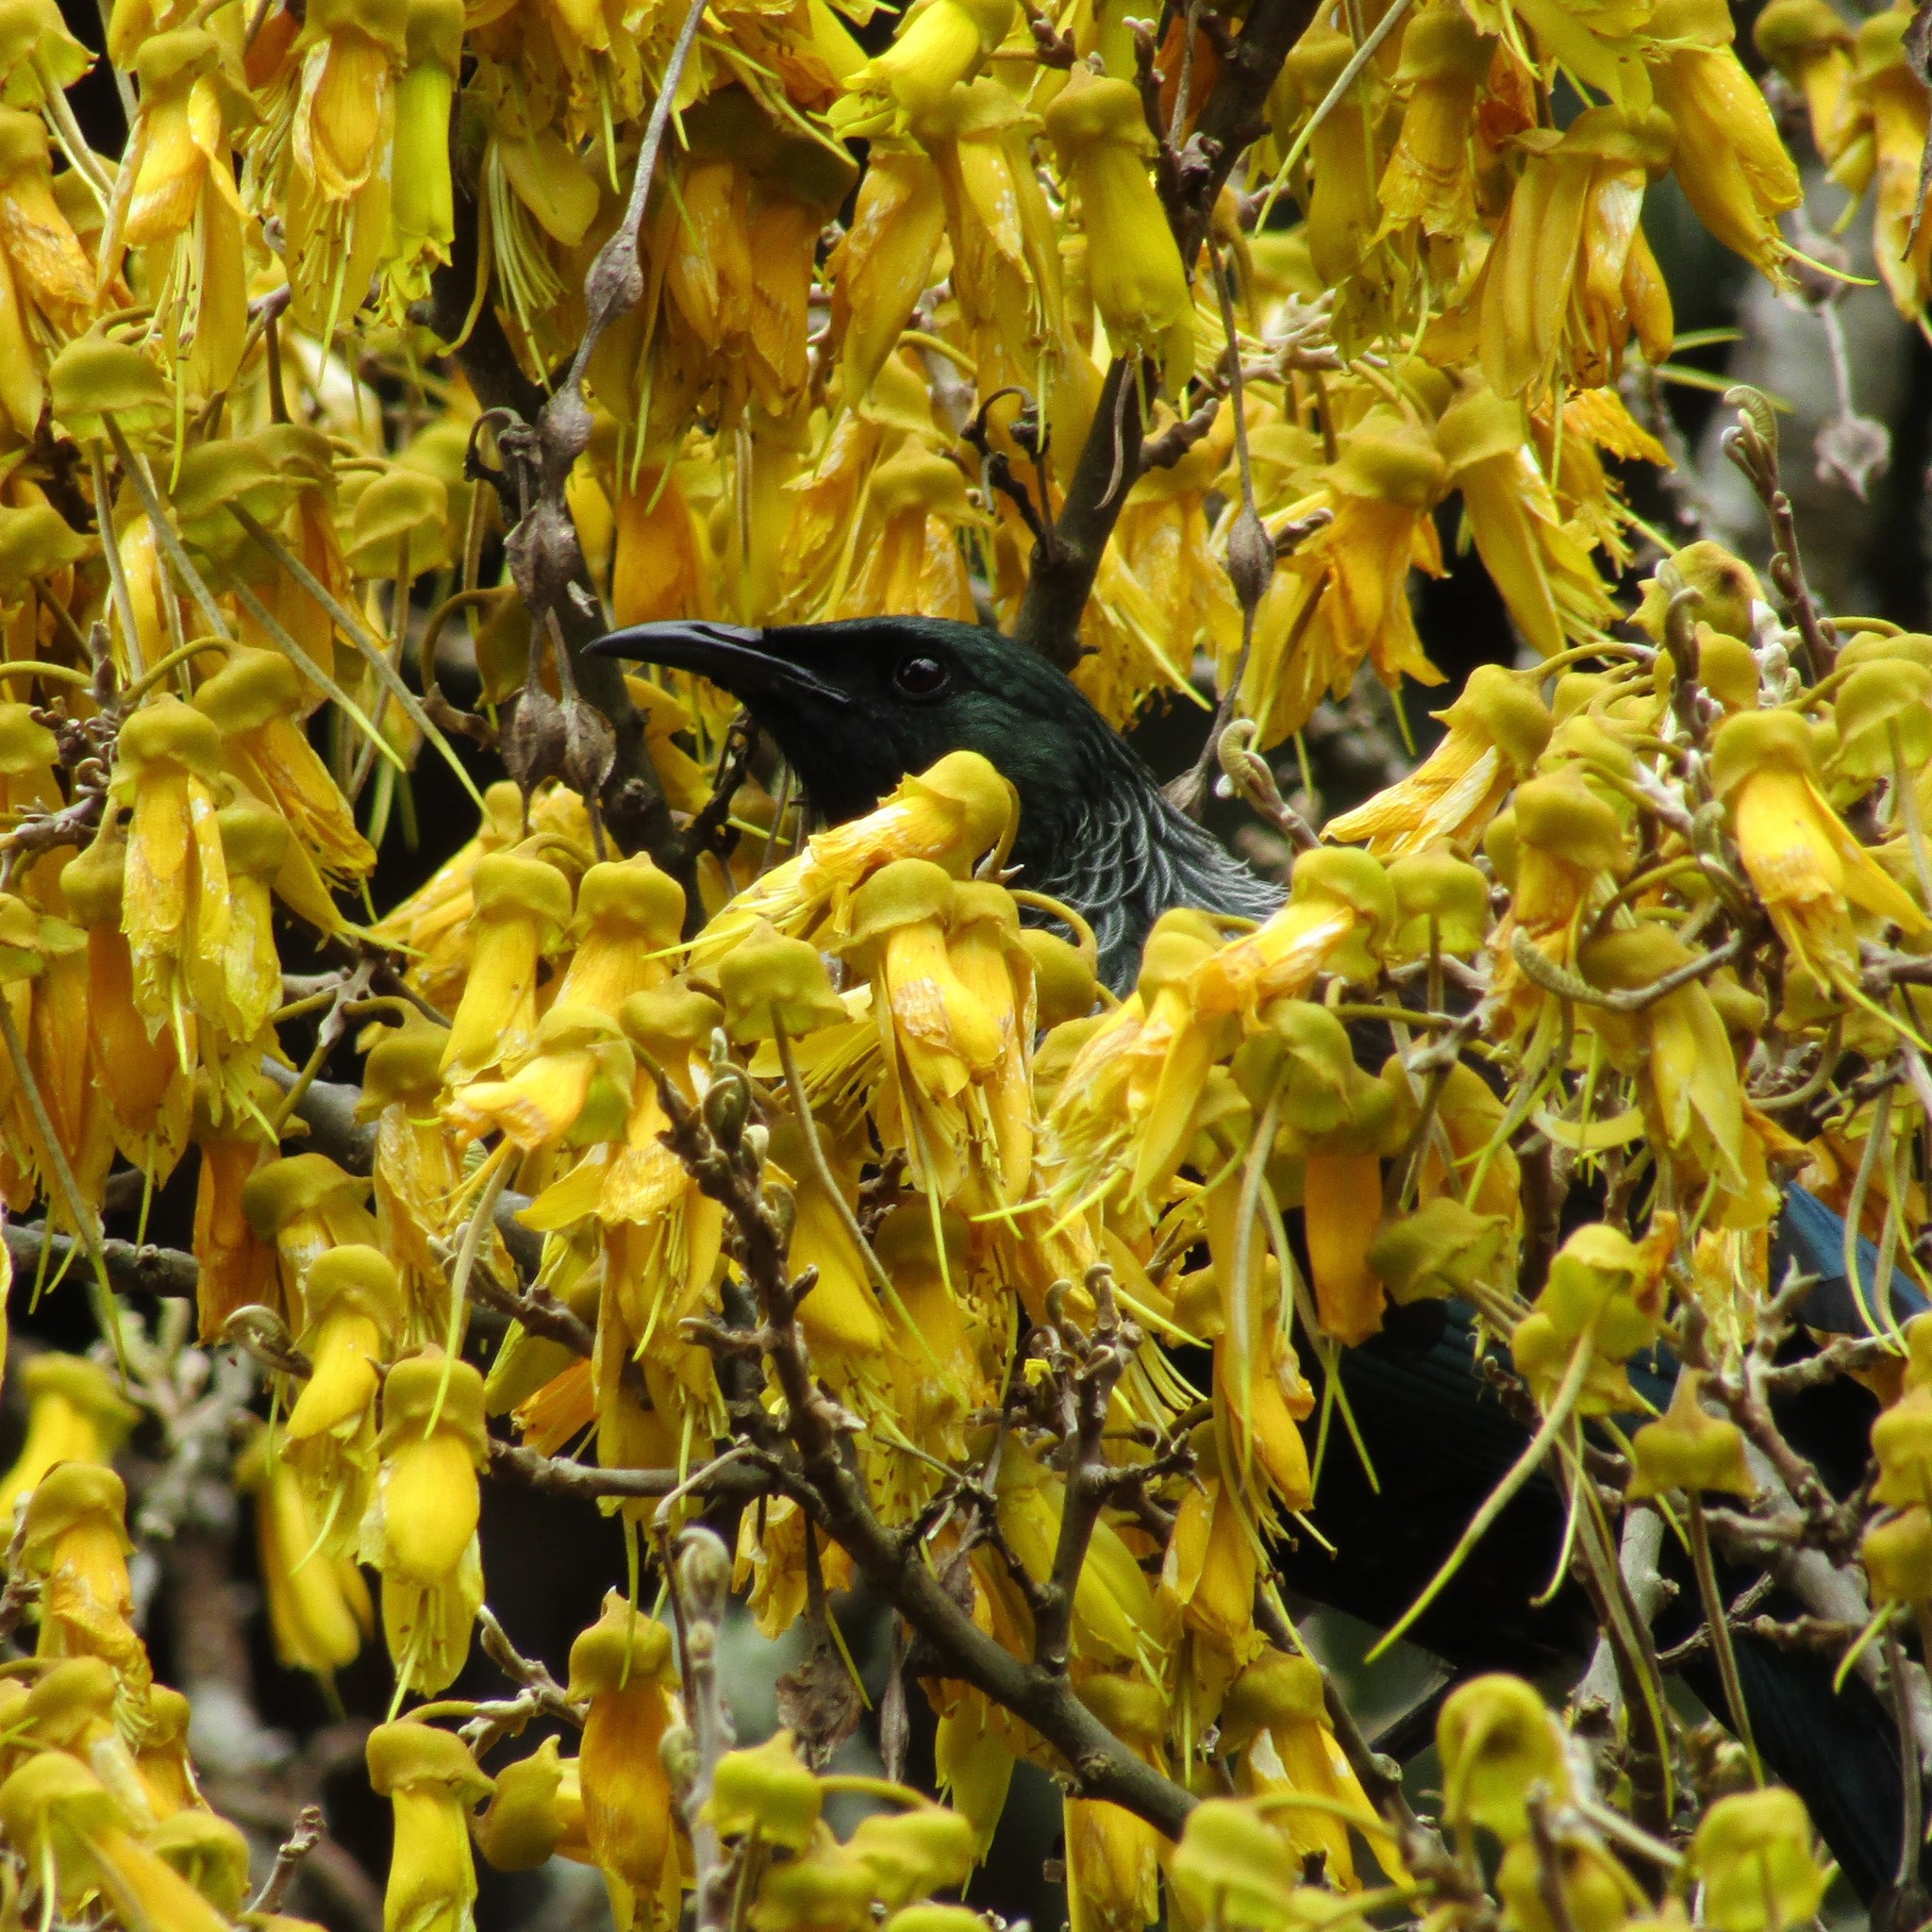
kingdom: Animalia
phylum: Chordata
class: Aves
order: Passeriformes
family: Meliphagidae
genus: Prosthemadera
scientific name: Prosthemadera novaeseelandiae
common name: Tui
